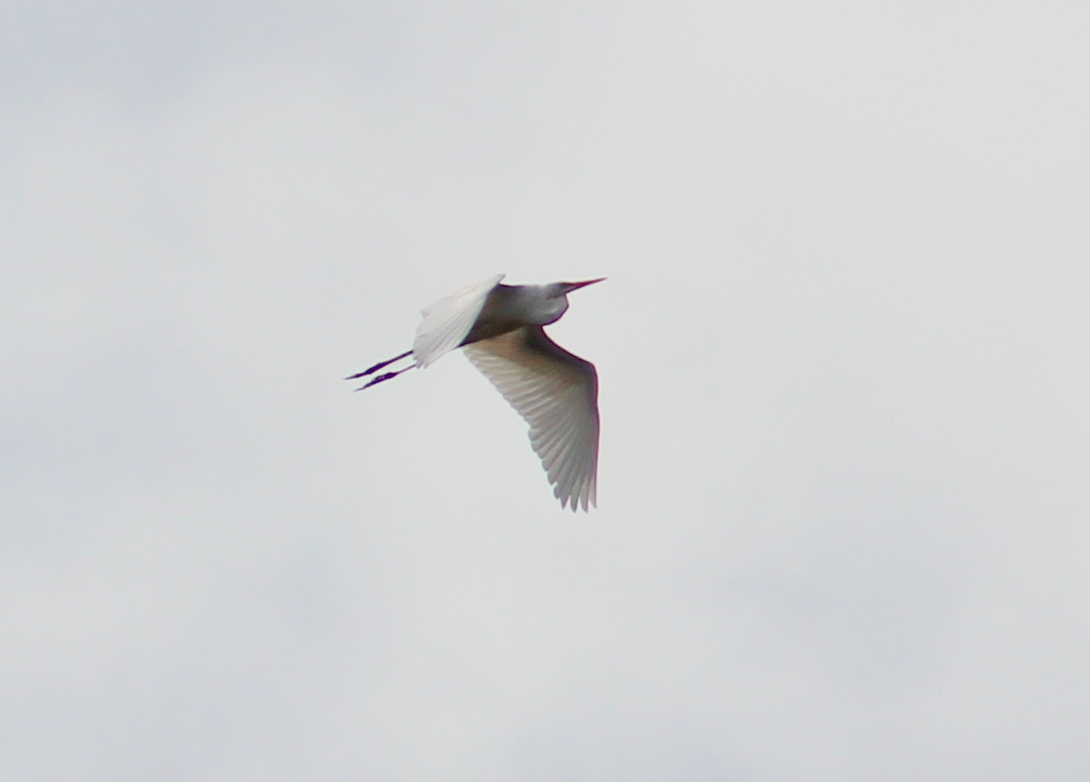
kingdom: Animalia
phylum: Chordata
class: Aves
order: Pelecaniformes
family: Ardeidae
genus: Ardea
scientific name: Ardea alba
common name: Great egret
